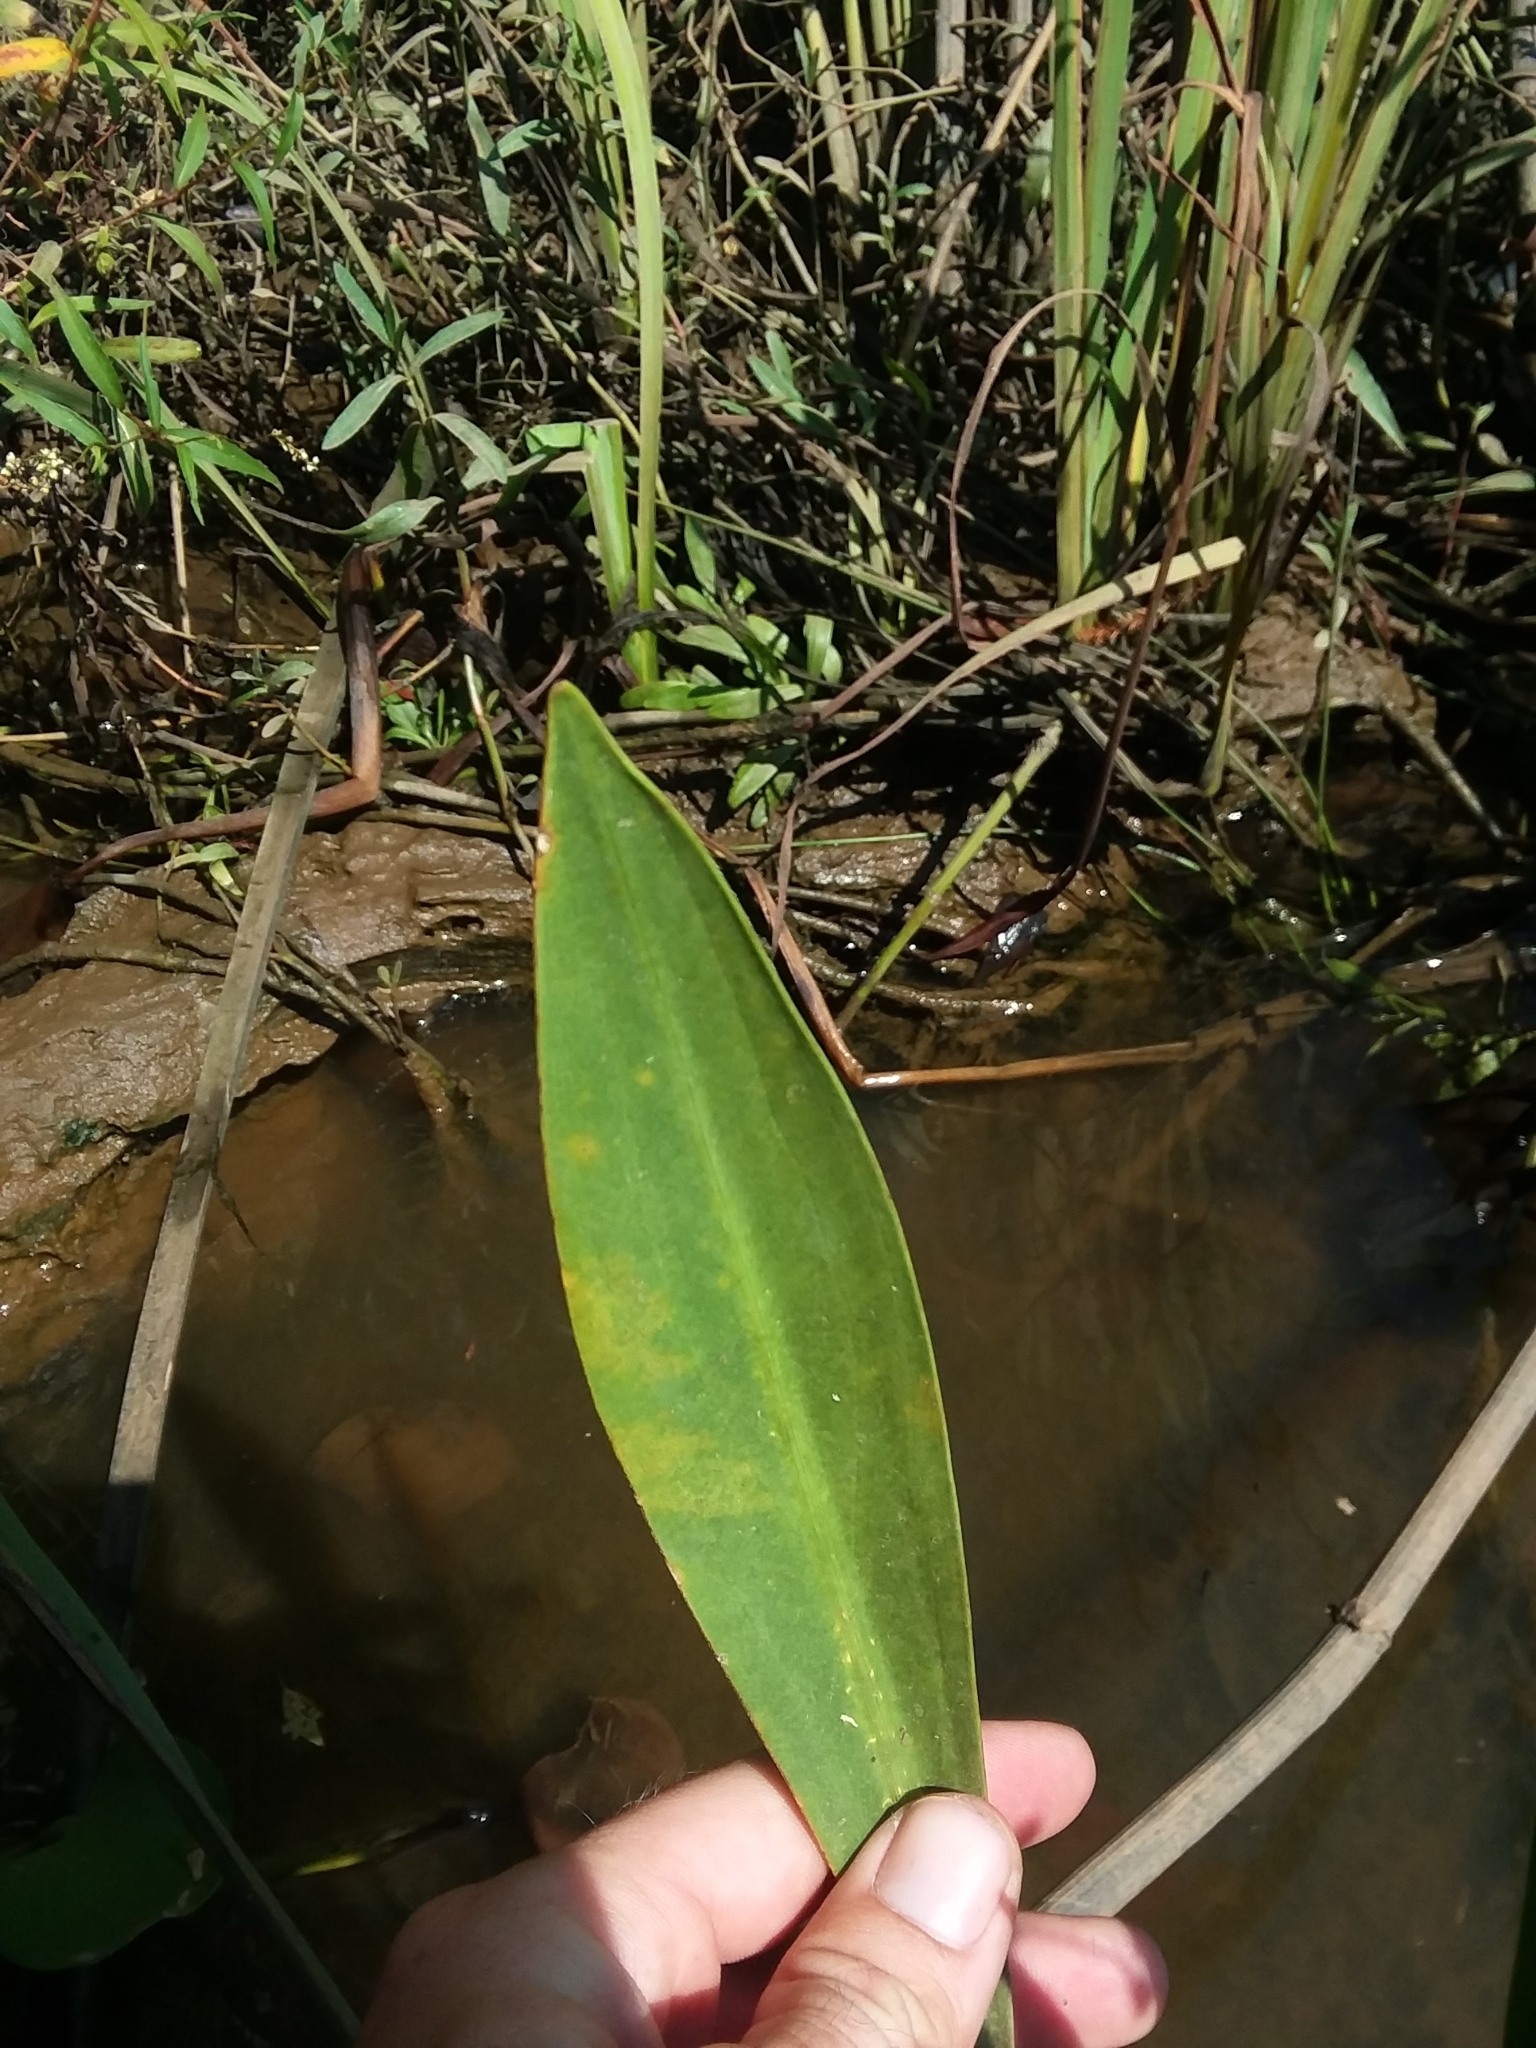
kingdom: Plantae
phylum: Tracheophyta
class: Liliopsida
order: Alismatales
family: Alismataceae
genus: Sagittaria
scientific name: Sagittaria lancifolia
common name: Lance-leaf arrowhead
